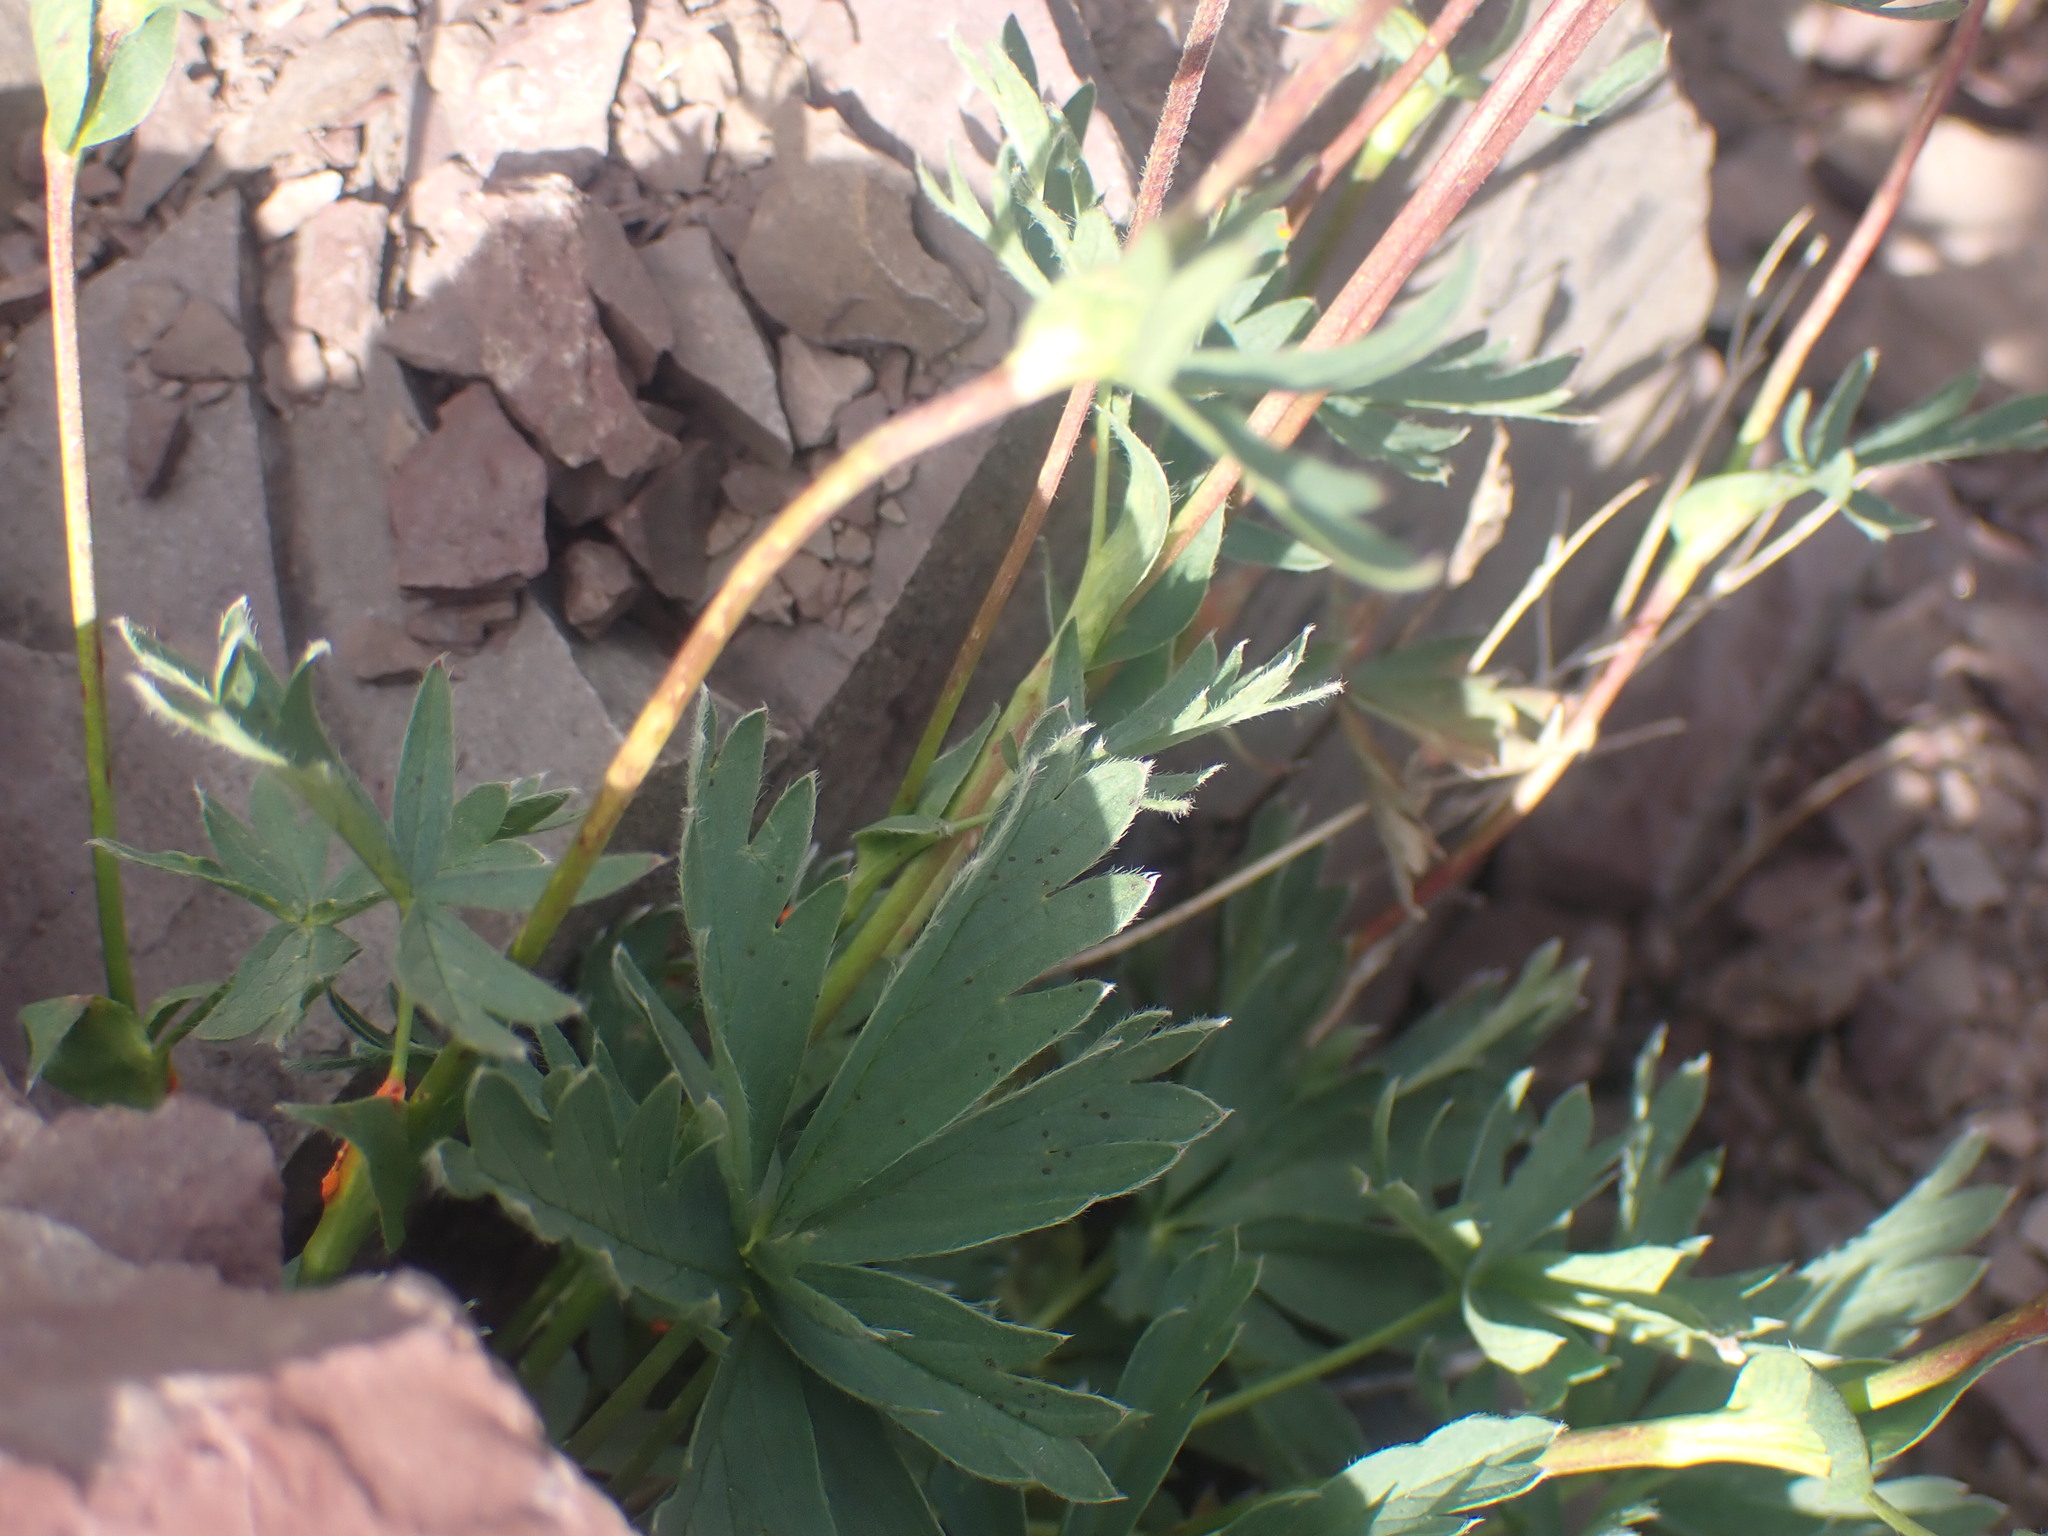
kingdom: Plantae
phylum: Tracheophyta
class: Magnoliopsida
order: Rosales
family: Rosaceae
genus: Potentilla
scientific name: Potentilla glaucophylla
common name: Blue-leaved cinquefoil
